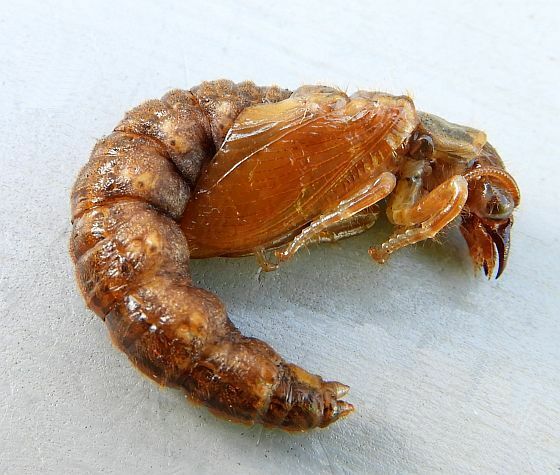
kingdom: Animalia
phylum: Arthropoda
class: Insecta
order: Megaloptera
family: Corydalidae
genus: Chauliodes
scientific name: Chauliodes pectinicornis
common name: Summer fishfly
